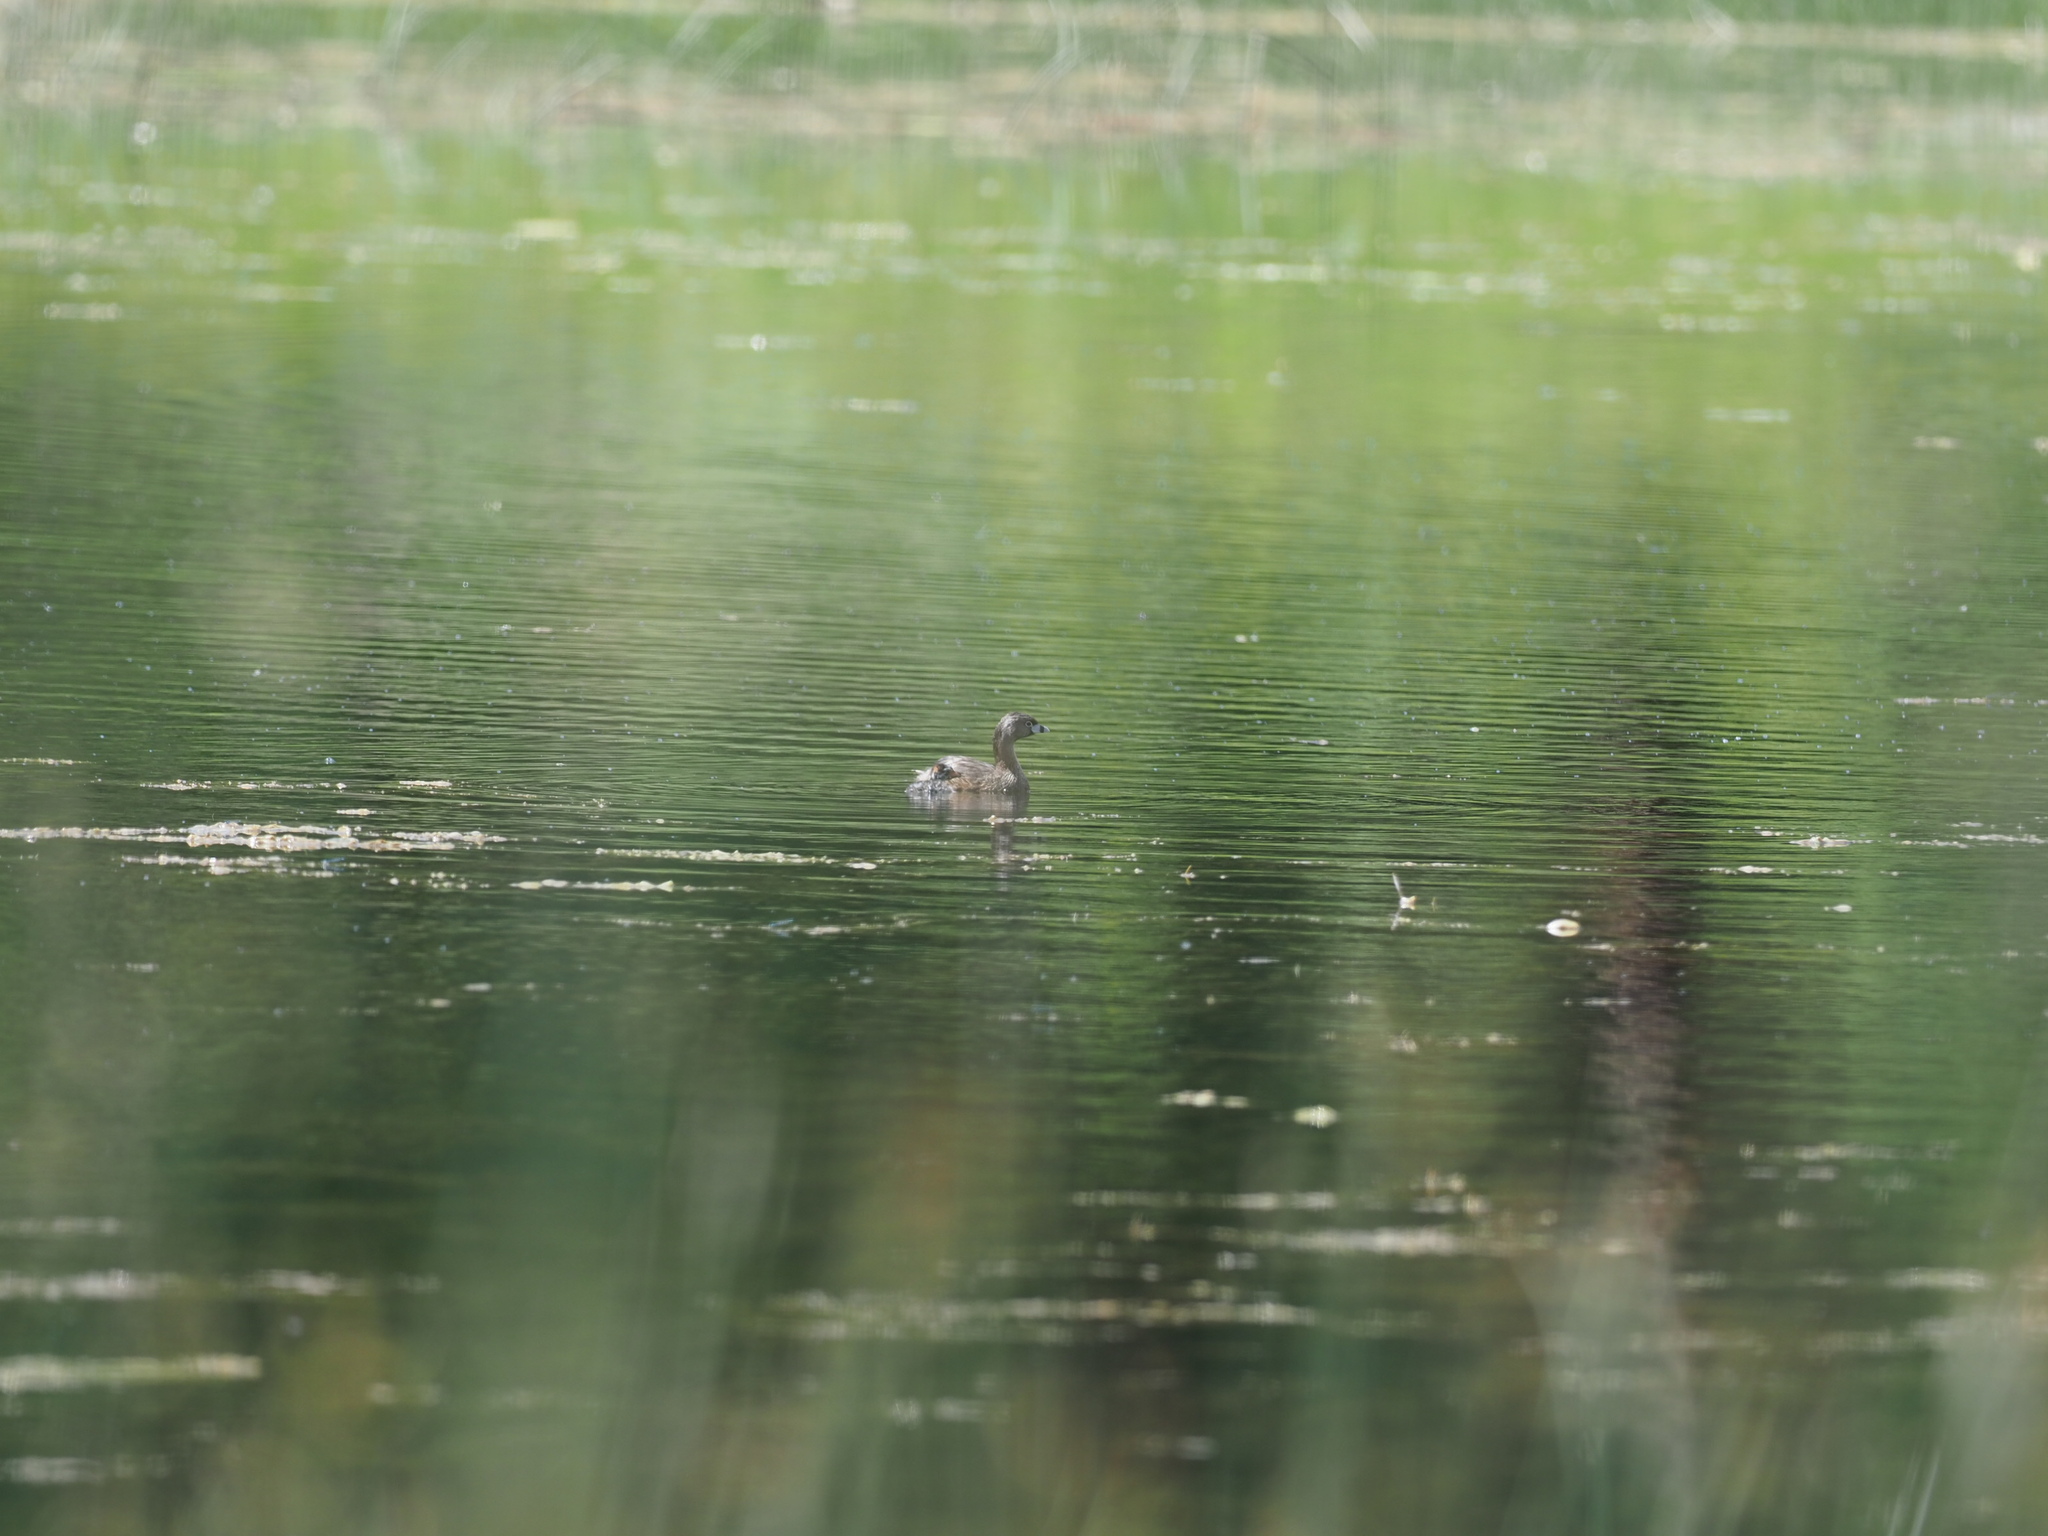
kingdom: Animalia
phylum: Chordata
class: Aves
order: Podicipediformes
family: Podicipedidae
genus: Podilymbus
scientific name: Podilymbus podiceps
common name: Pied-billed grebe
